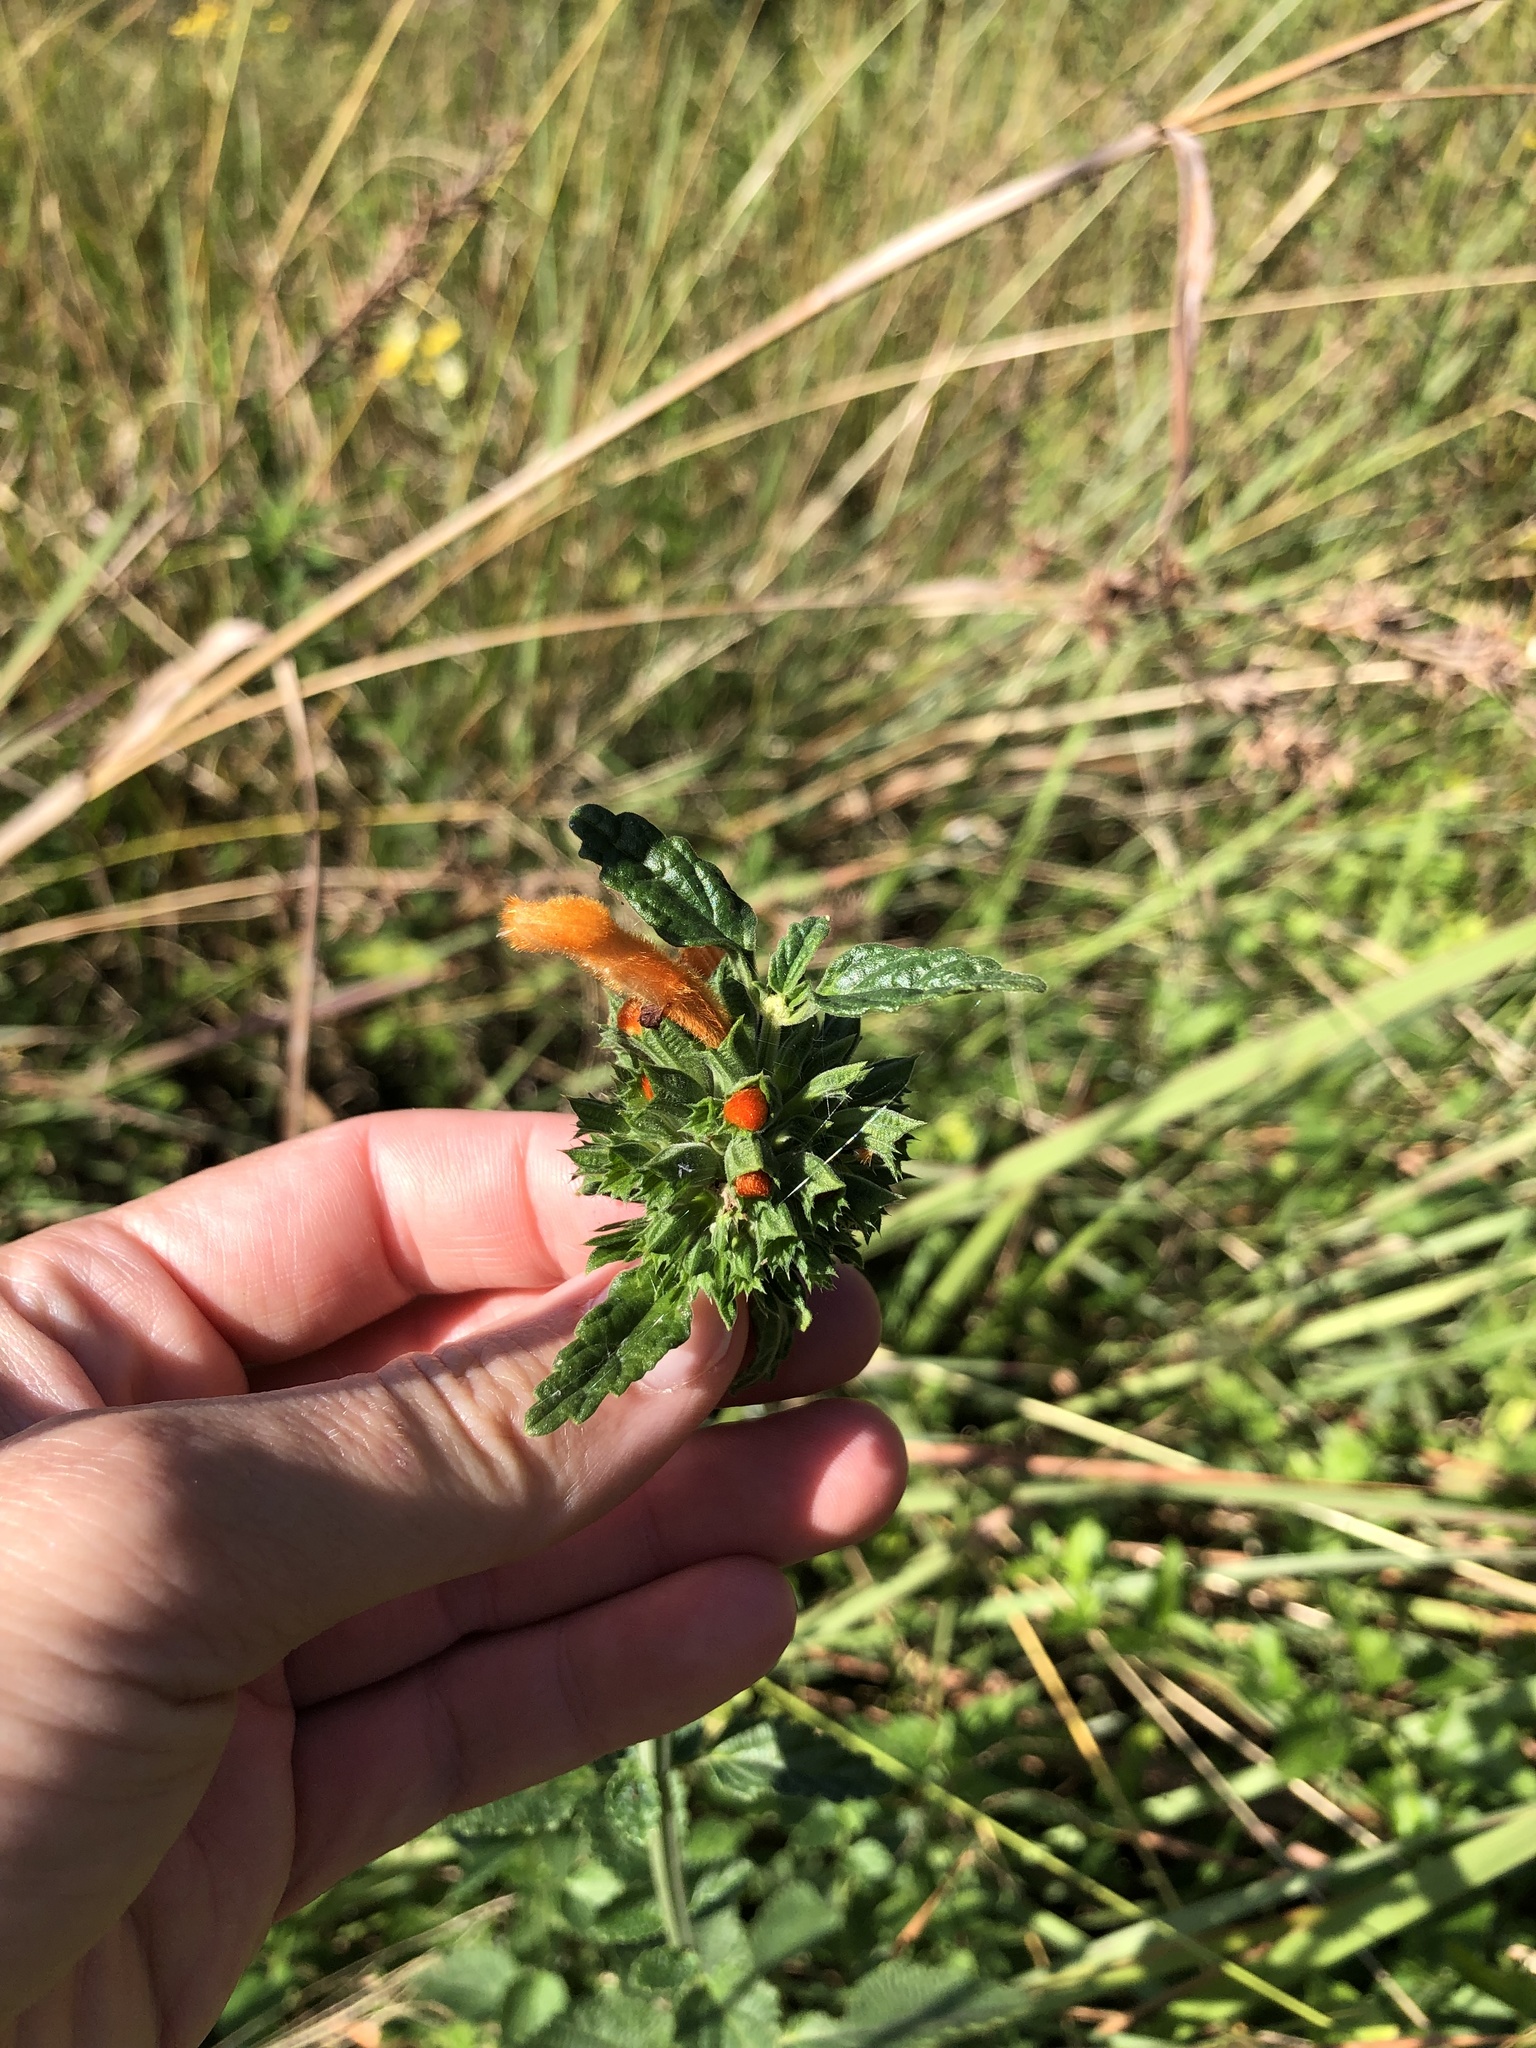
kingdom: Plantae
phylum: Tracheophyta
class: Magnoliopsida
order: Lamiales
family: Lamiaceae
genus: Leonotis
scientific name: Leonotis leonurus
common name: Lion's ear
